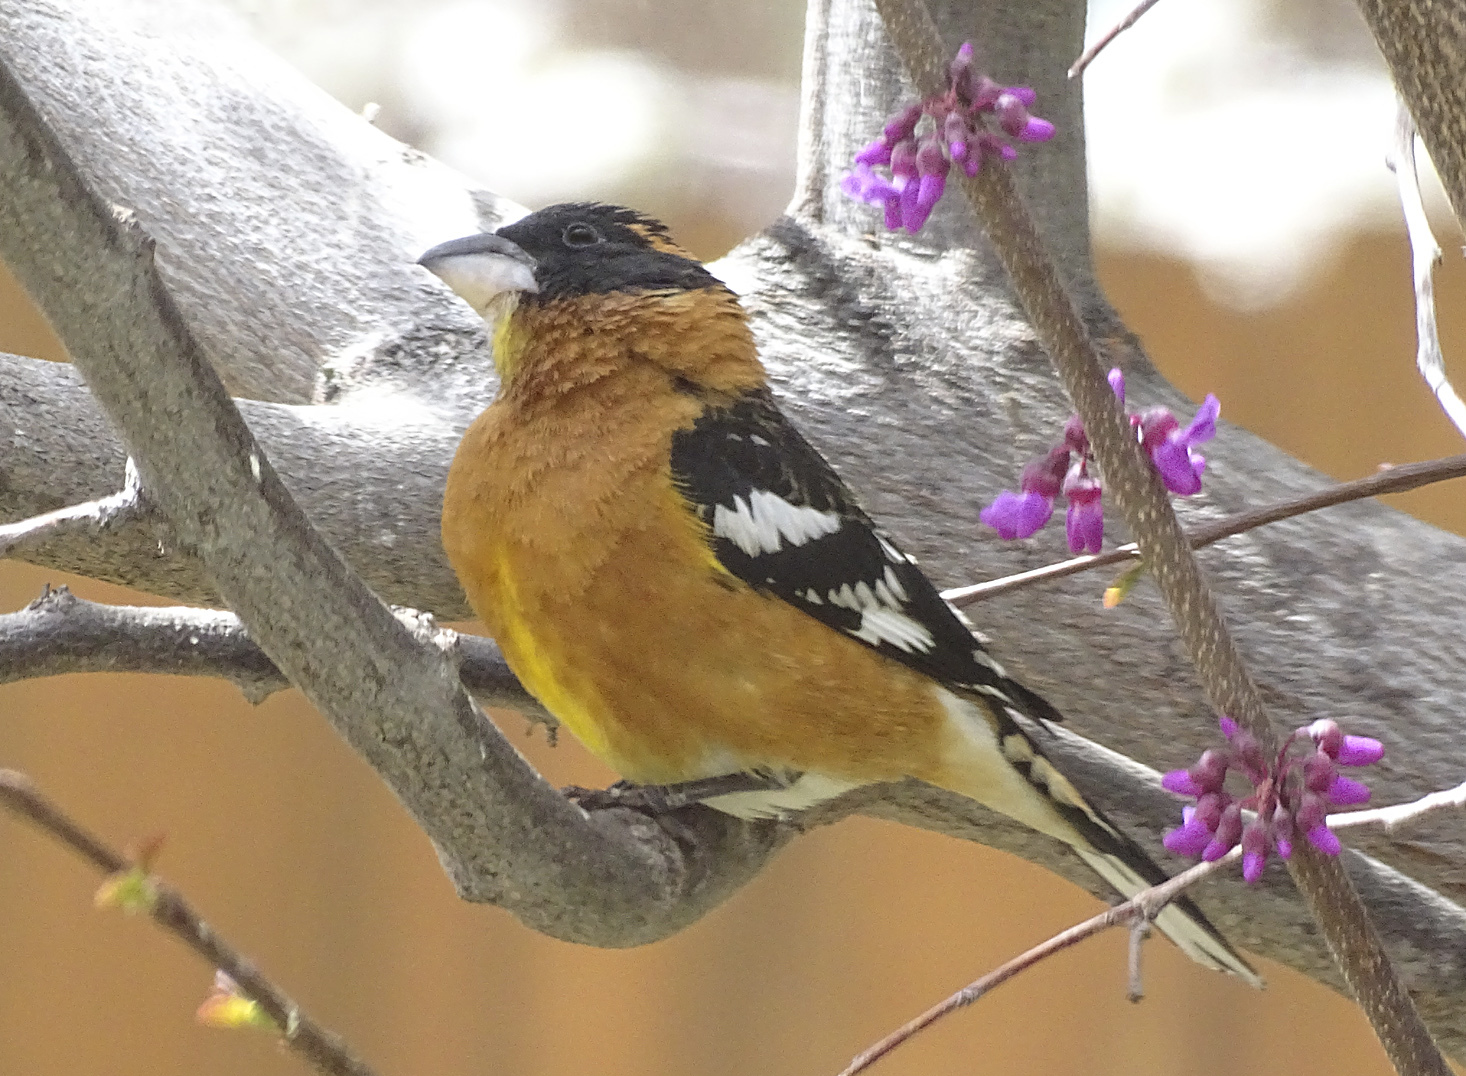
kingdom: Animalia
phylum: Chordata
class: Aves
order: Passeriformes
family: Cardinalidae
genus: Pheucticus
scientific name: Pheucticus melanocephalus
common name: Black-headed grosbeak
